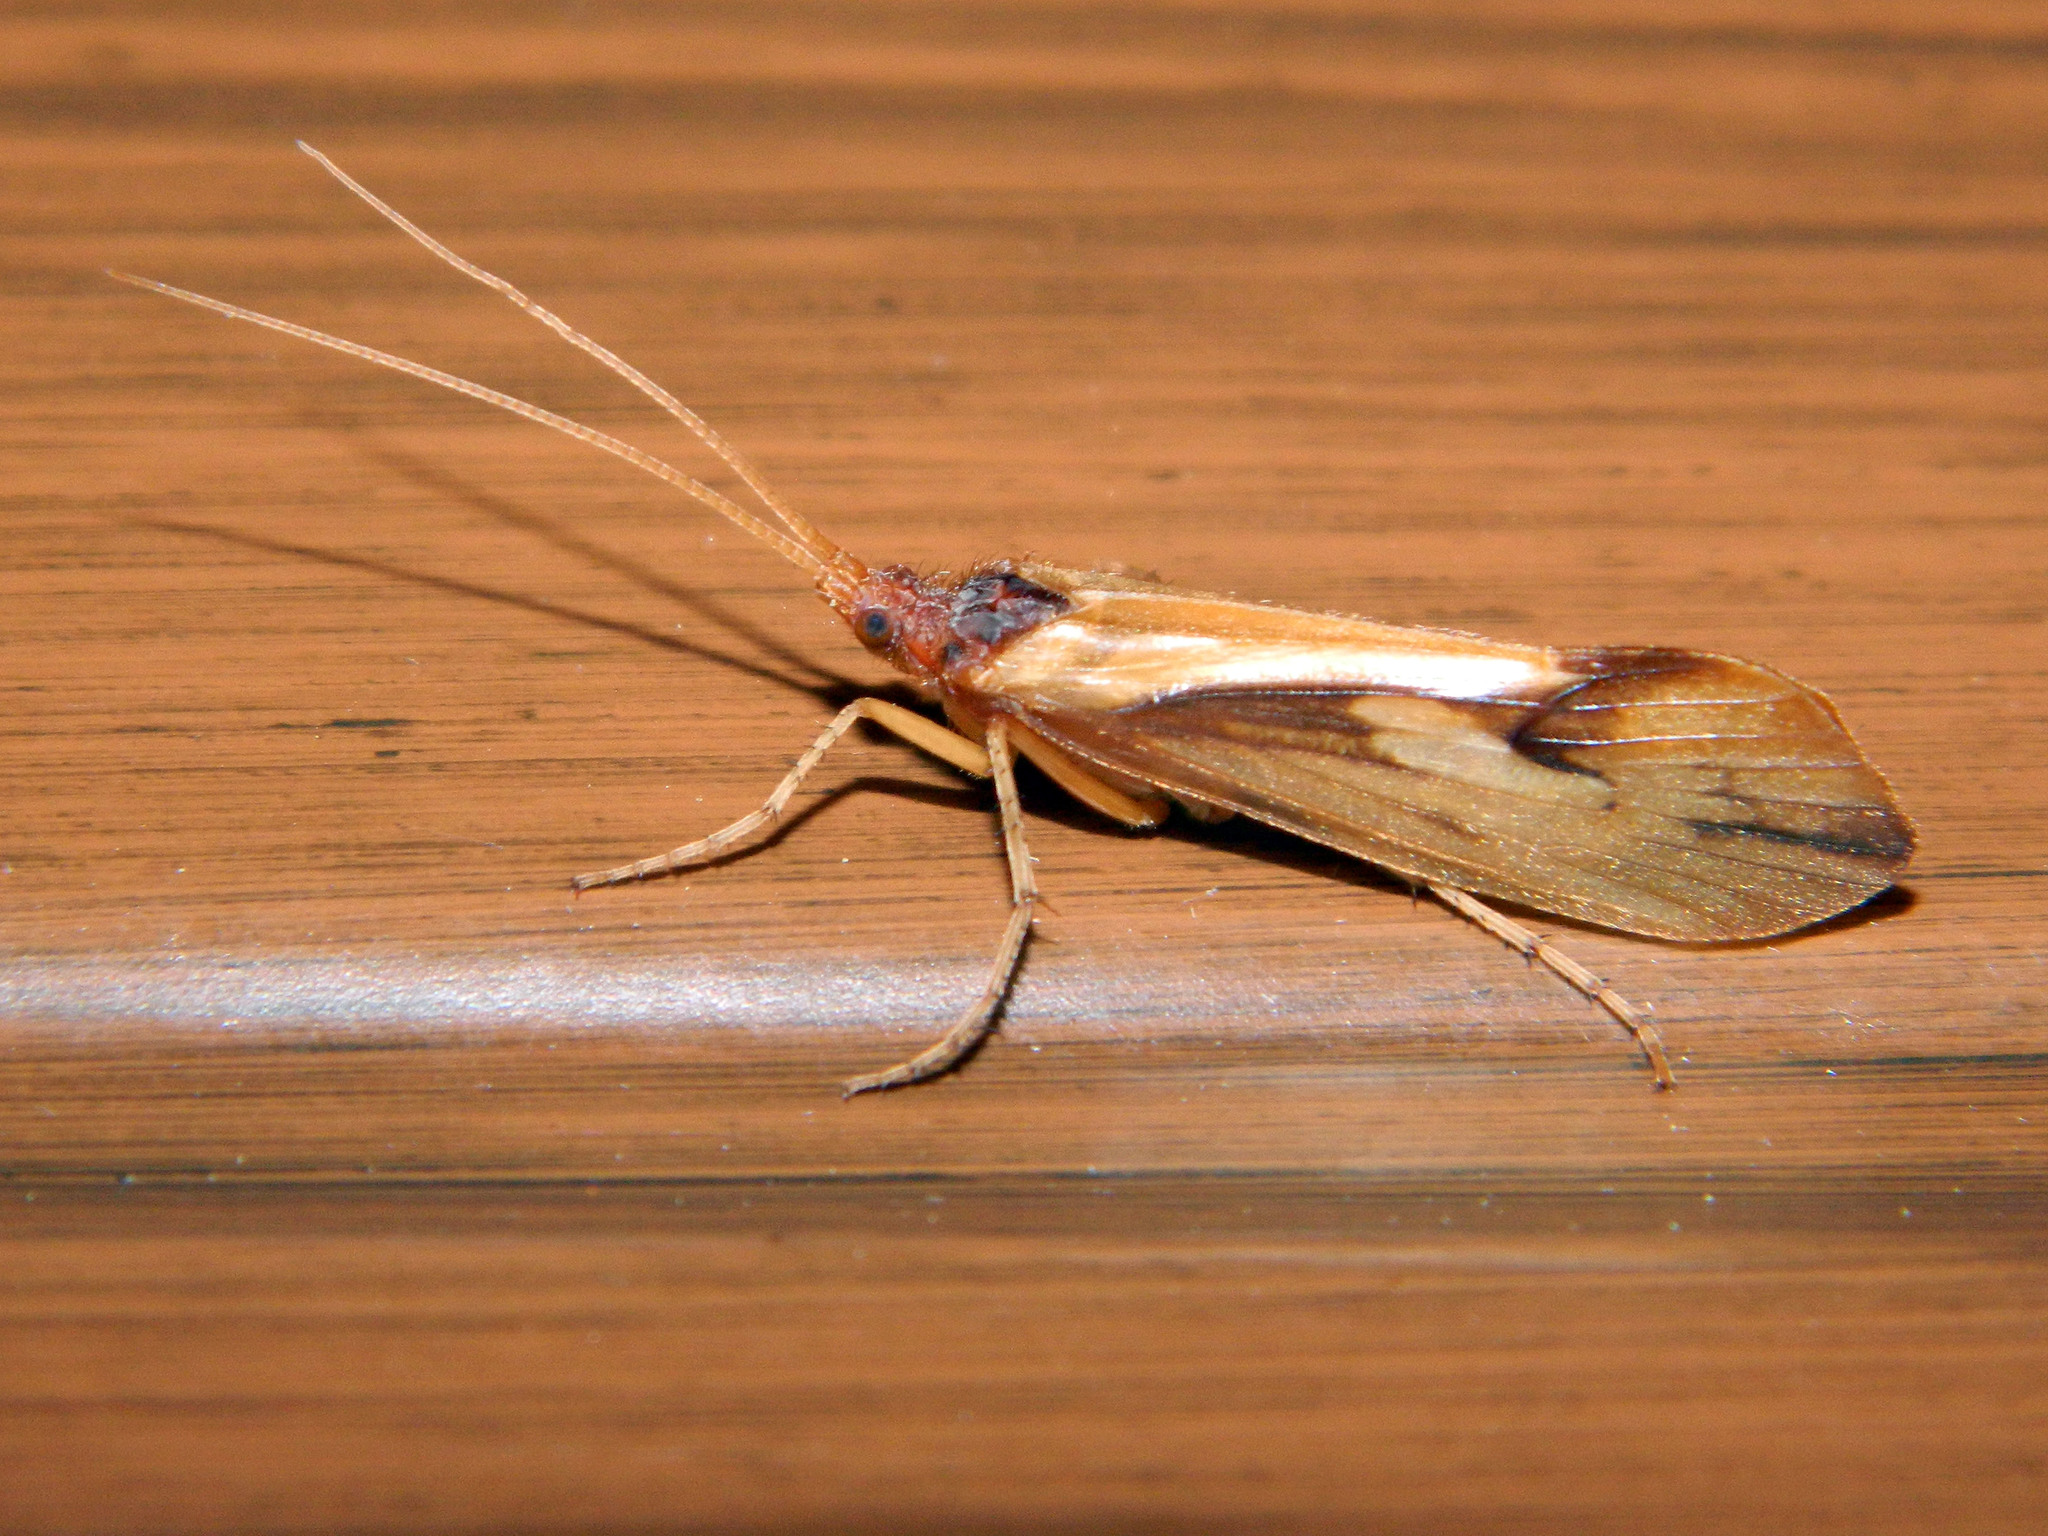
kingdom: Animalia
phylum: Arthropoda
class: Insecta
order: Trichoptera
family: Limnephilidae
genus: Platycentropus
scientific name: Platycentropus radiatus
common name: Chocolate-and-cream sedge
